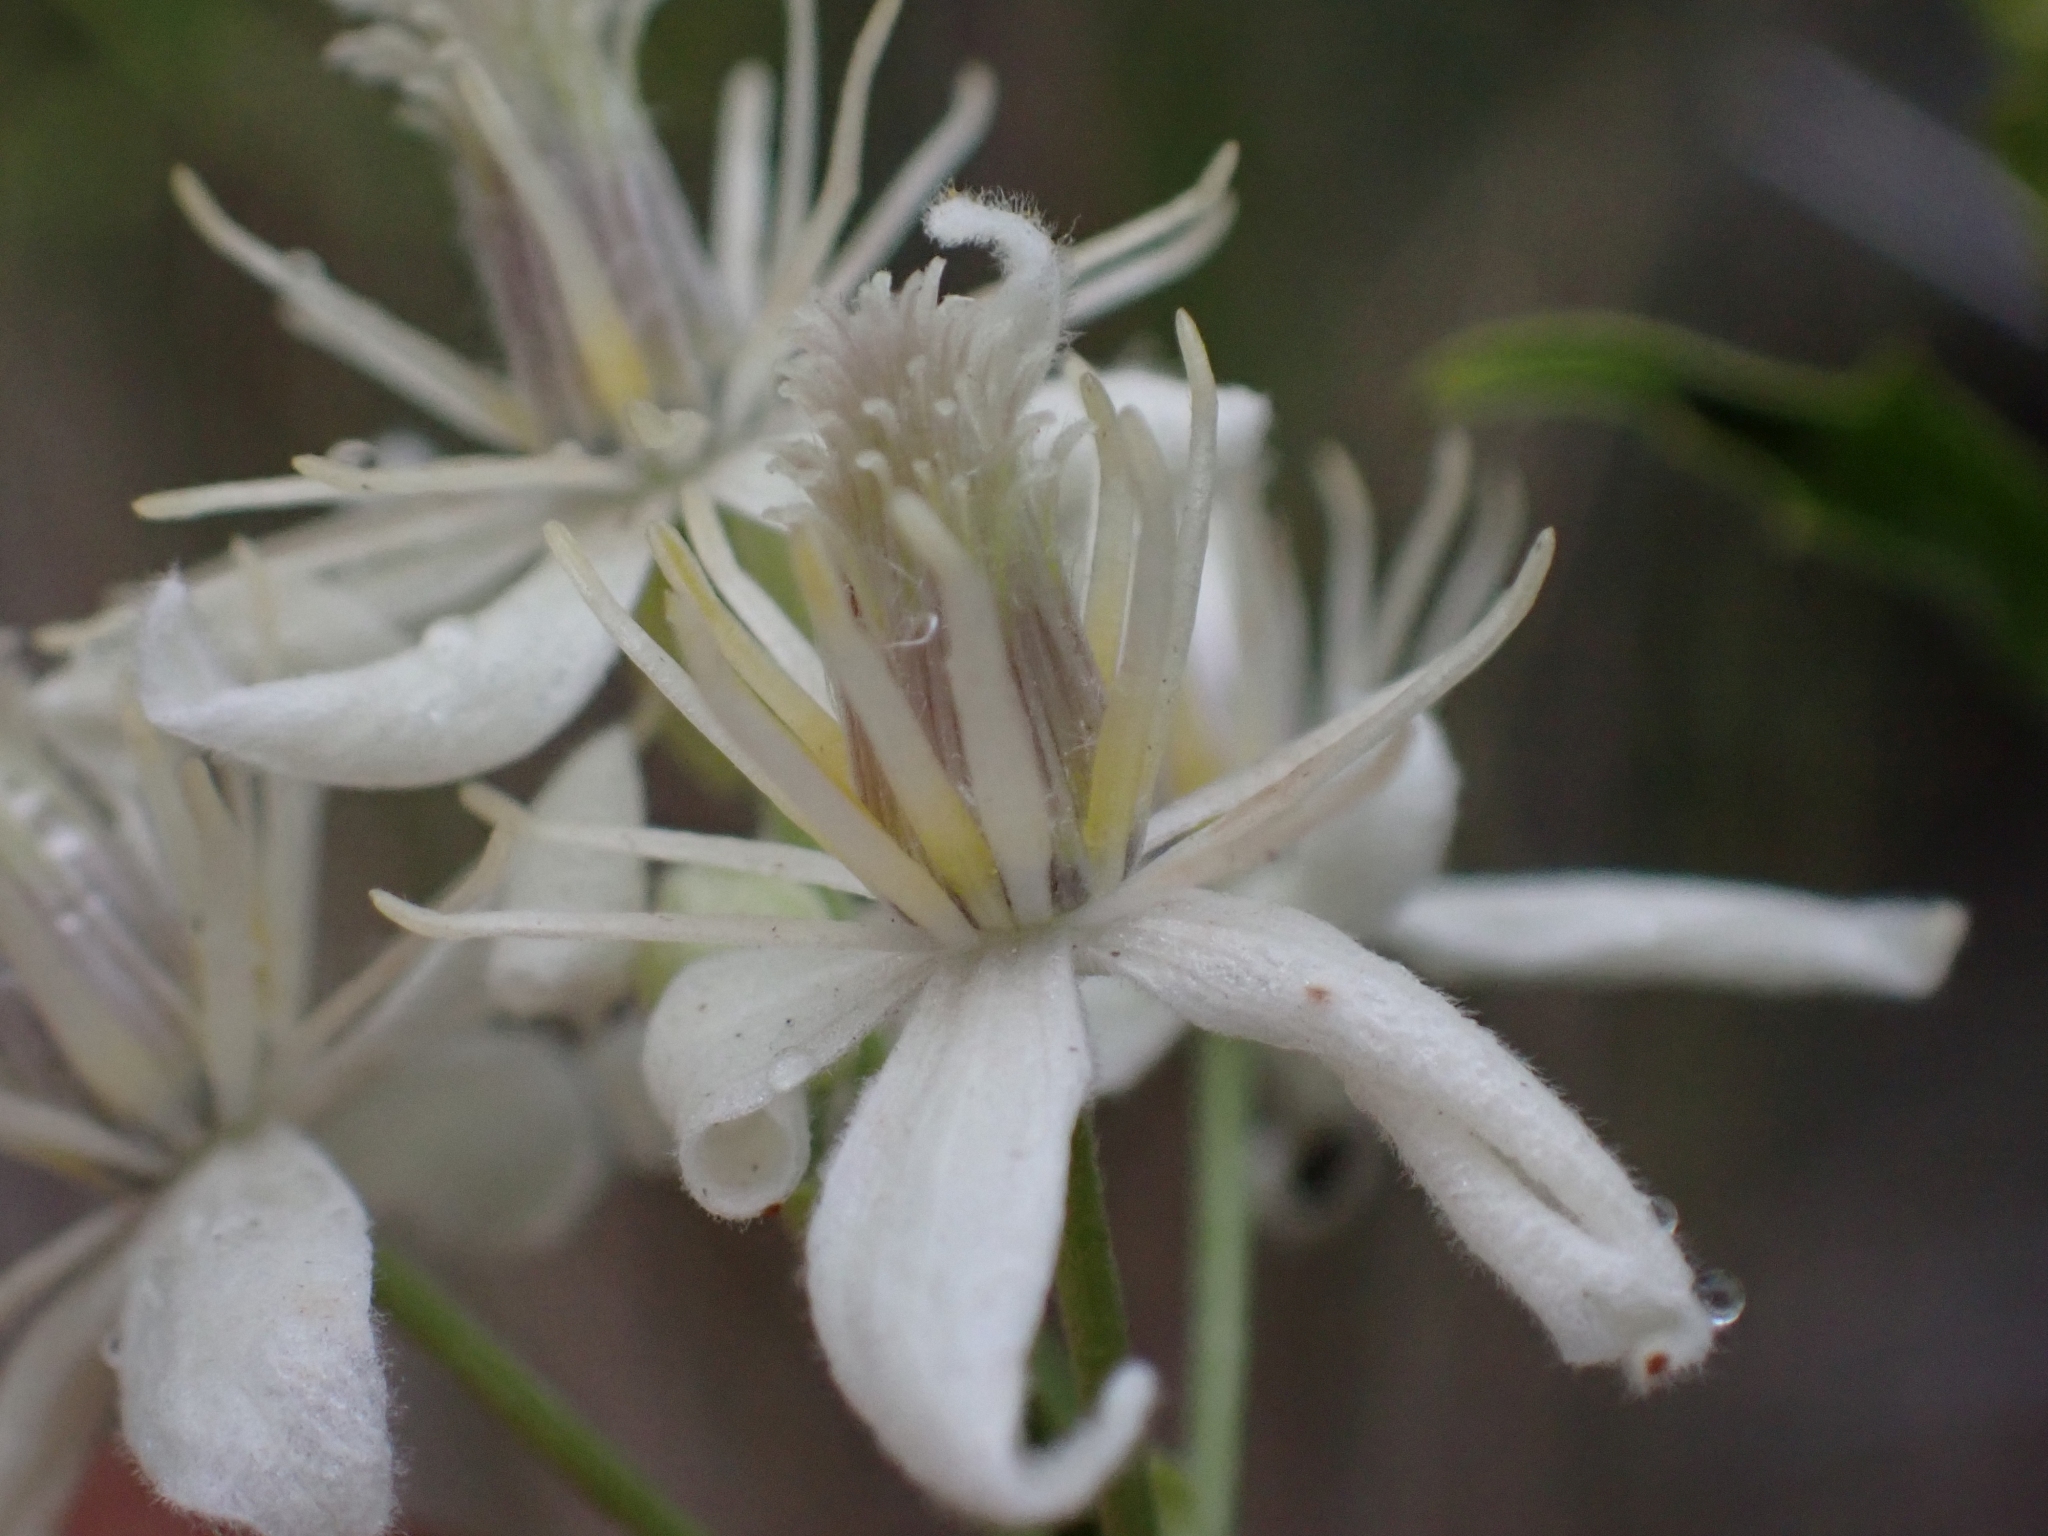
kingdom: Plantae
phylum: Tracheophyta
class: Magnoliopsida
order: Ranunculales
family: Ranunculaceae
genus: Clematis
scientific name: Clematis ligusticifolia
